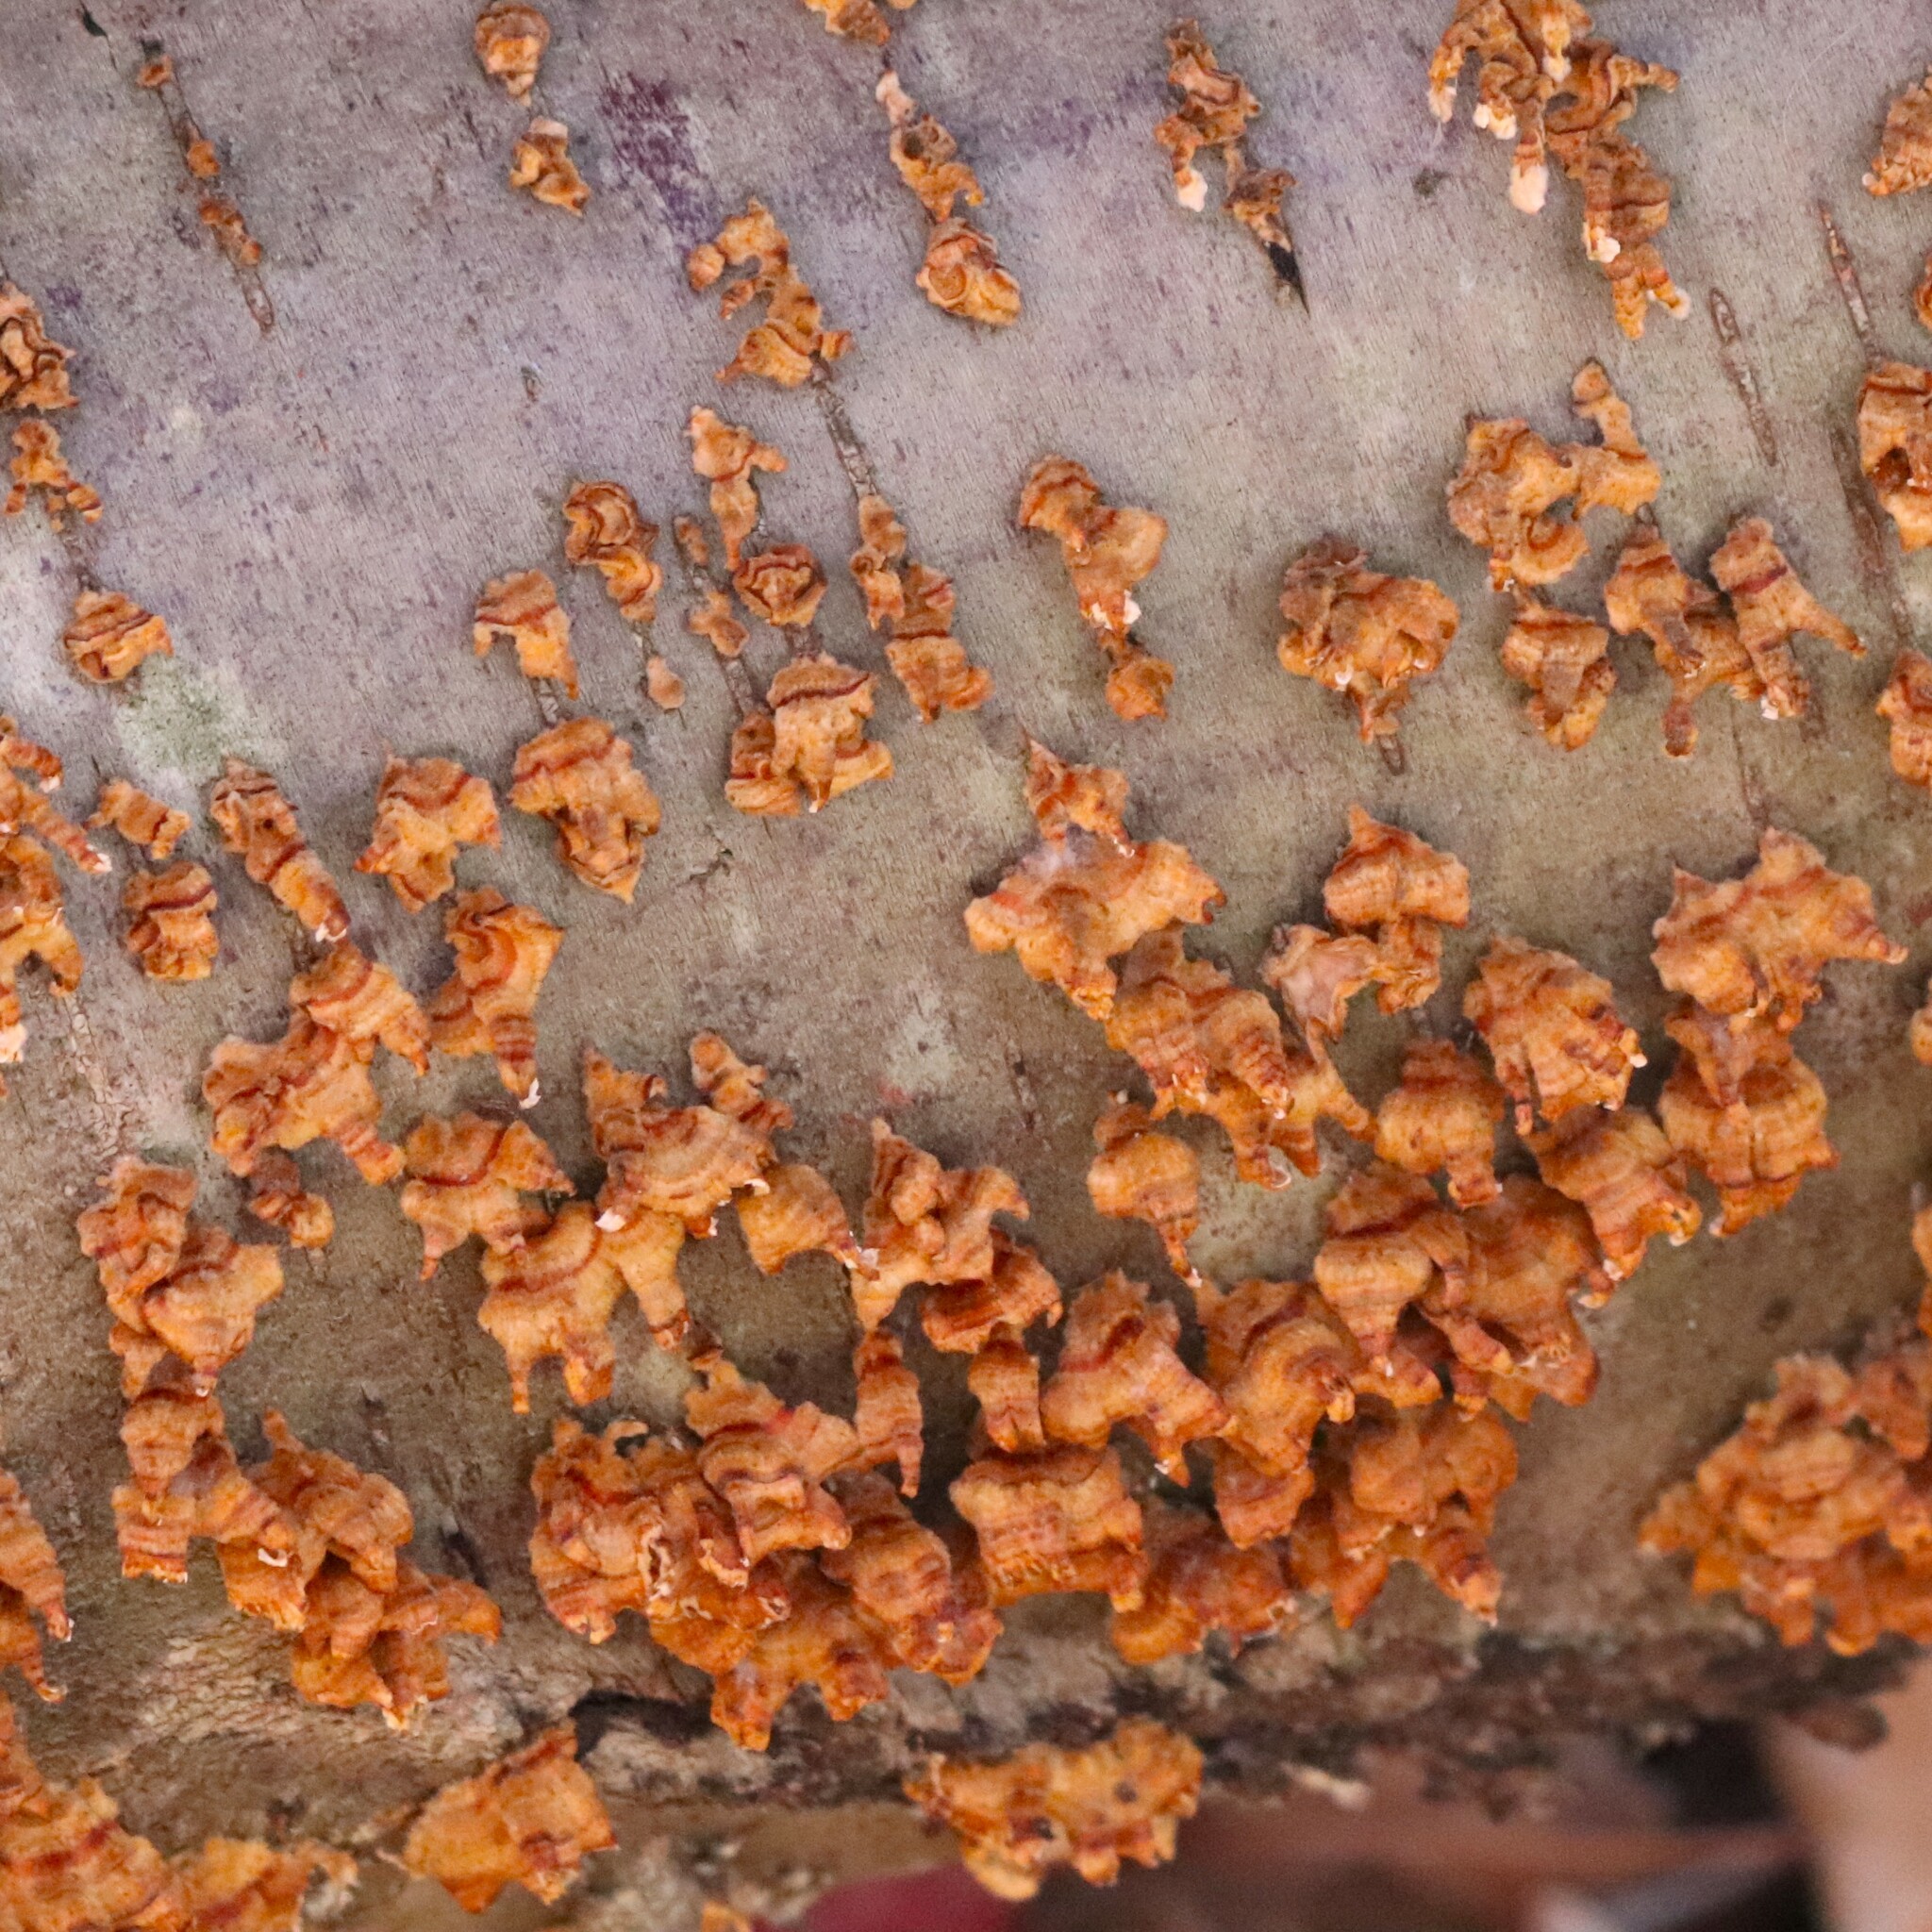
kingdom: Fungi
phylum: Basidiomycota
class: Agaricomycetes
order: Russulales
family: Stereaceae
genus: Stereum
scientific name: Stereum complicatum
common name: Crowded parchment
